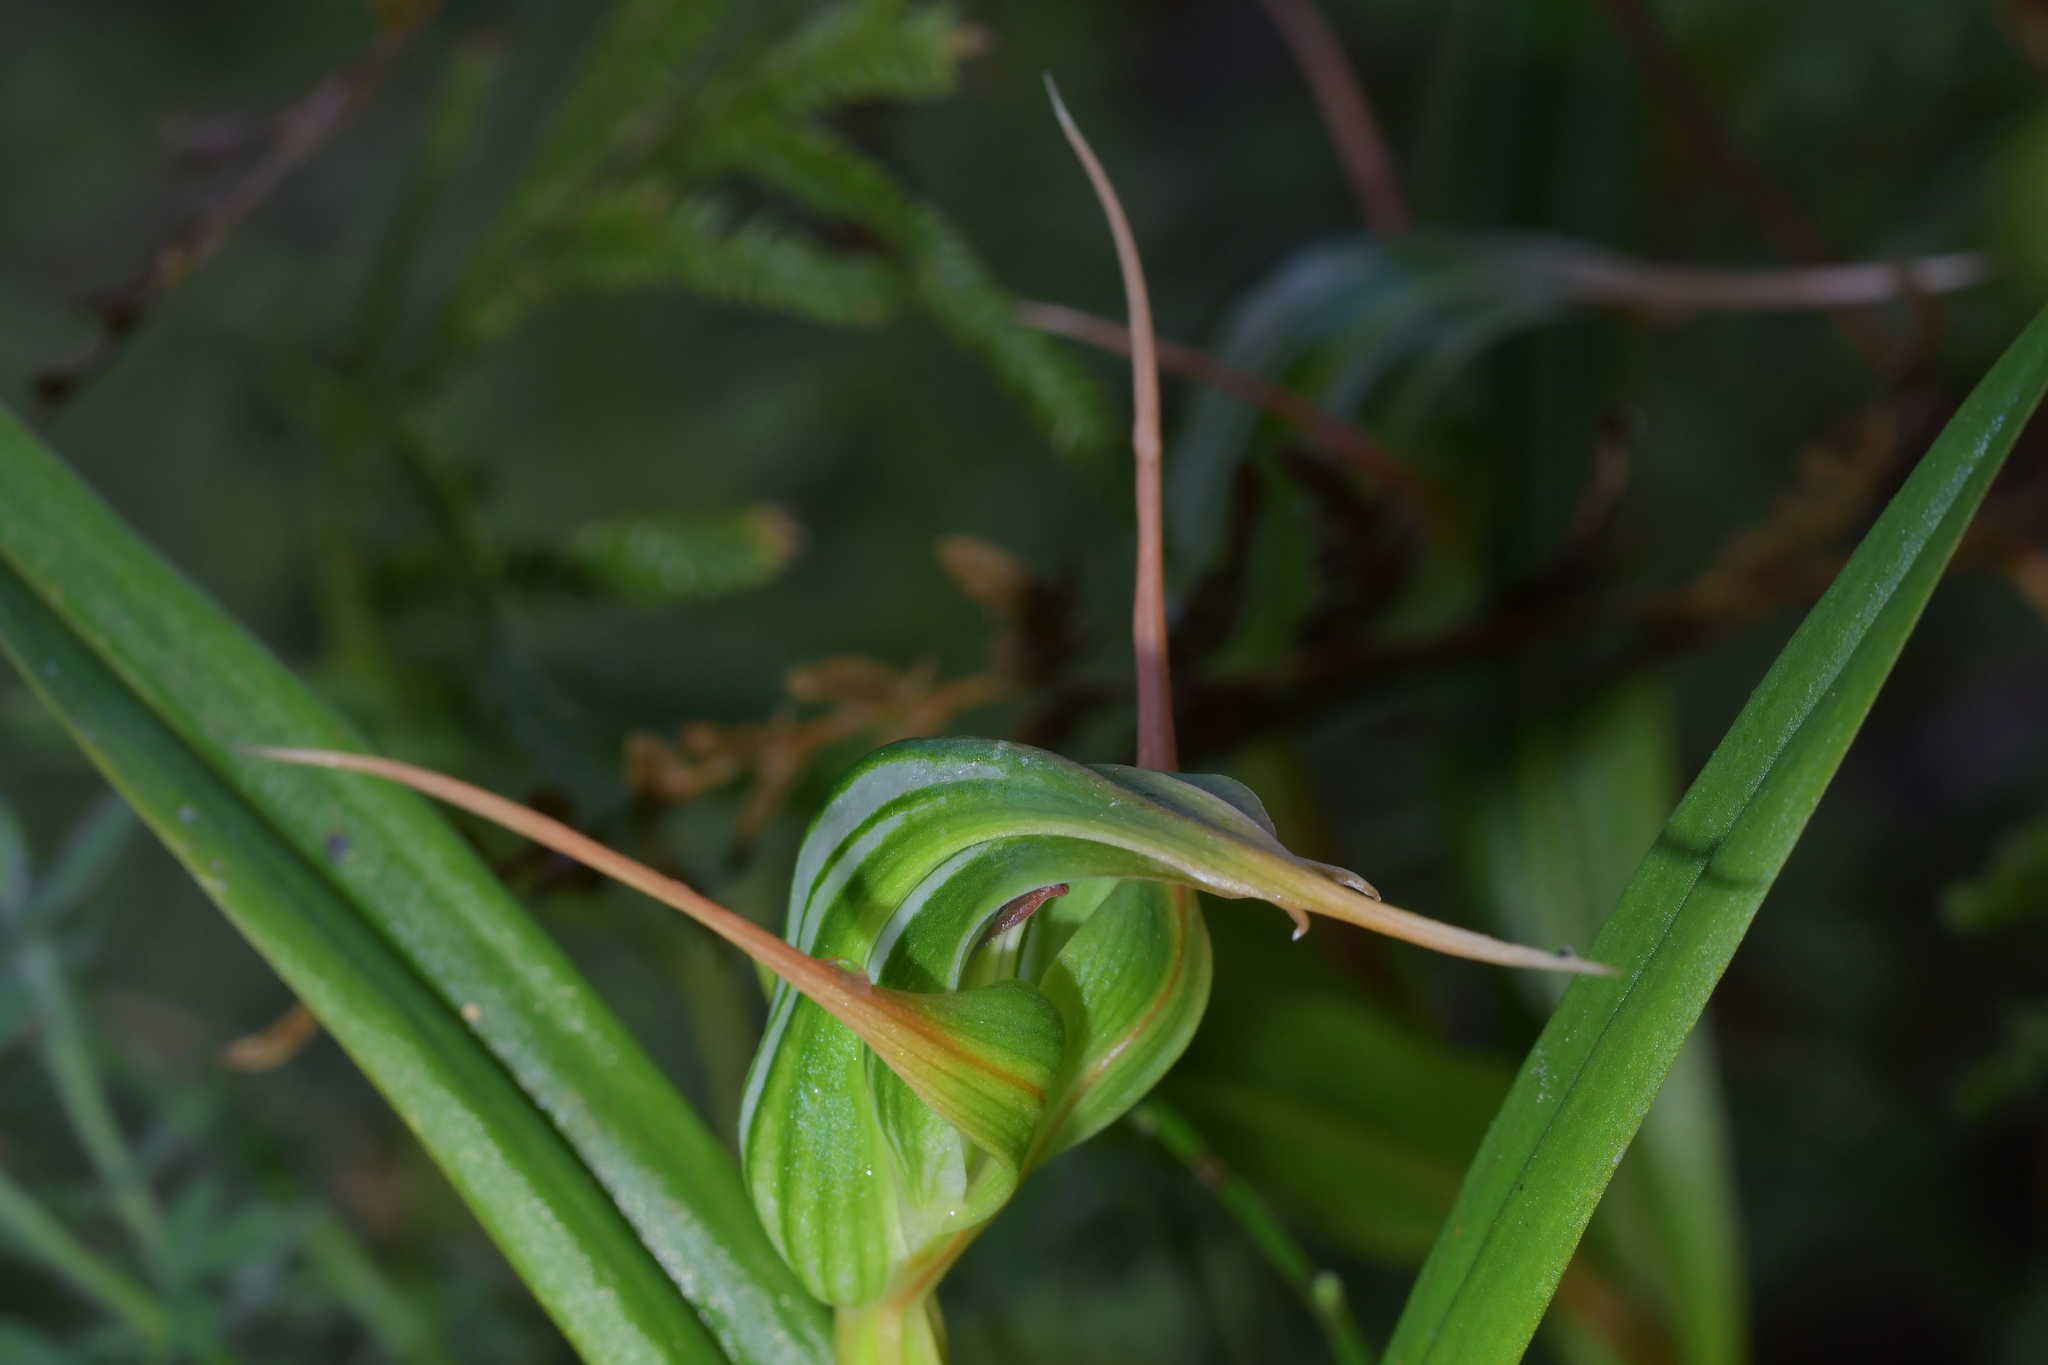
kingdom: Plantae
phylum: Tracheophyta
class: Liliopsida
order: Asparagales
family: Orchidaceae
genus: Pterostylis
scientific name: Pterostylis banksii
